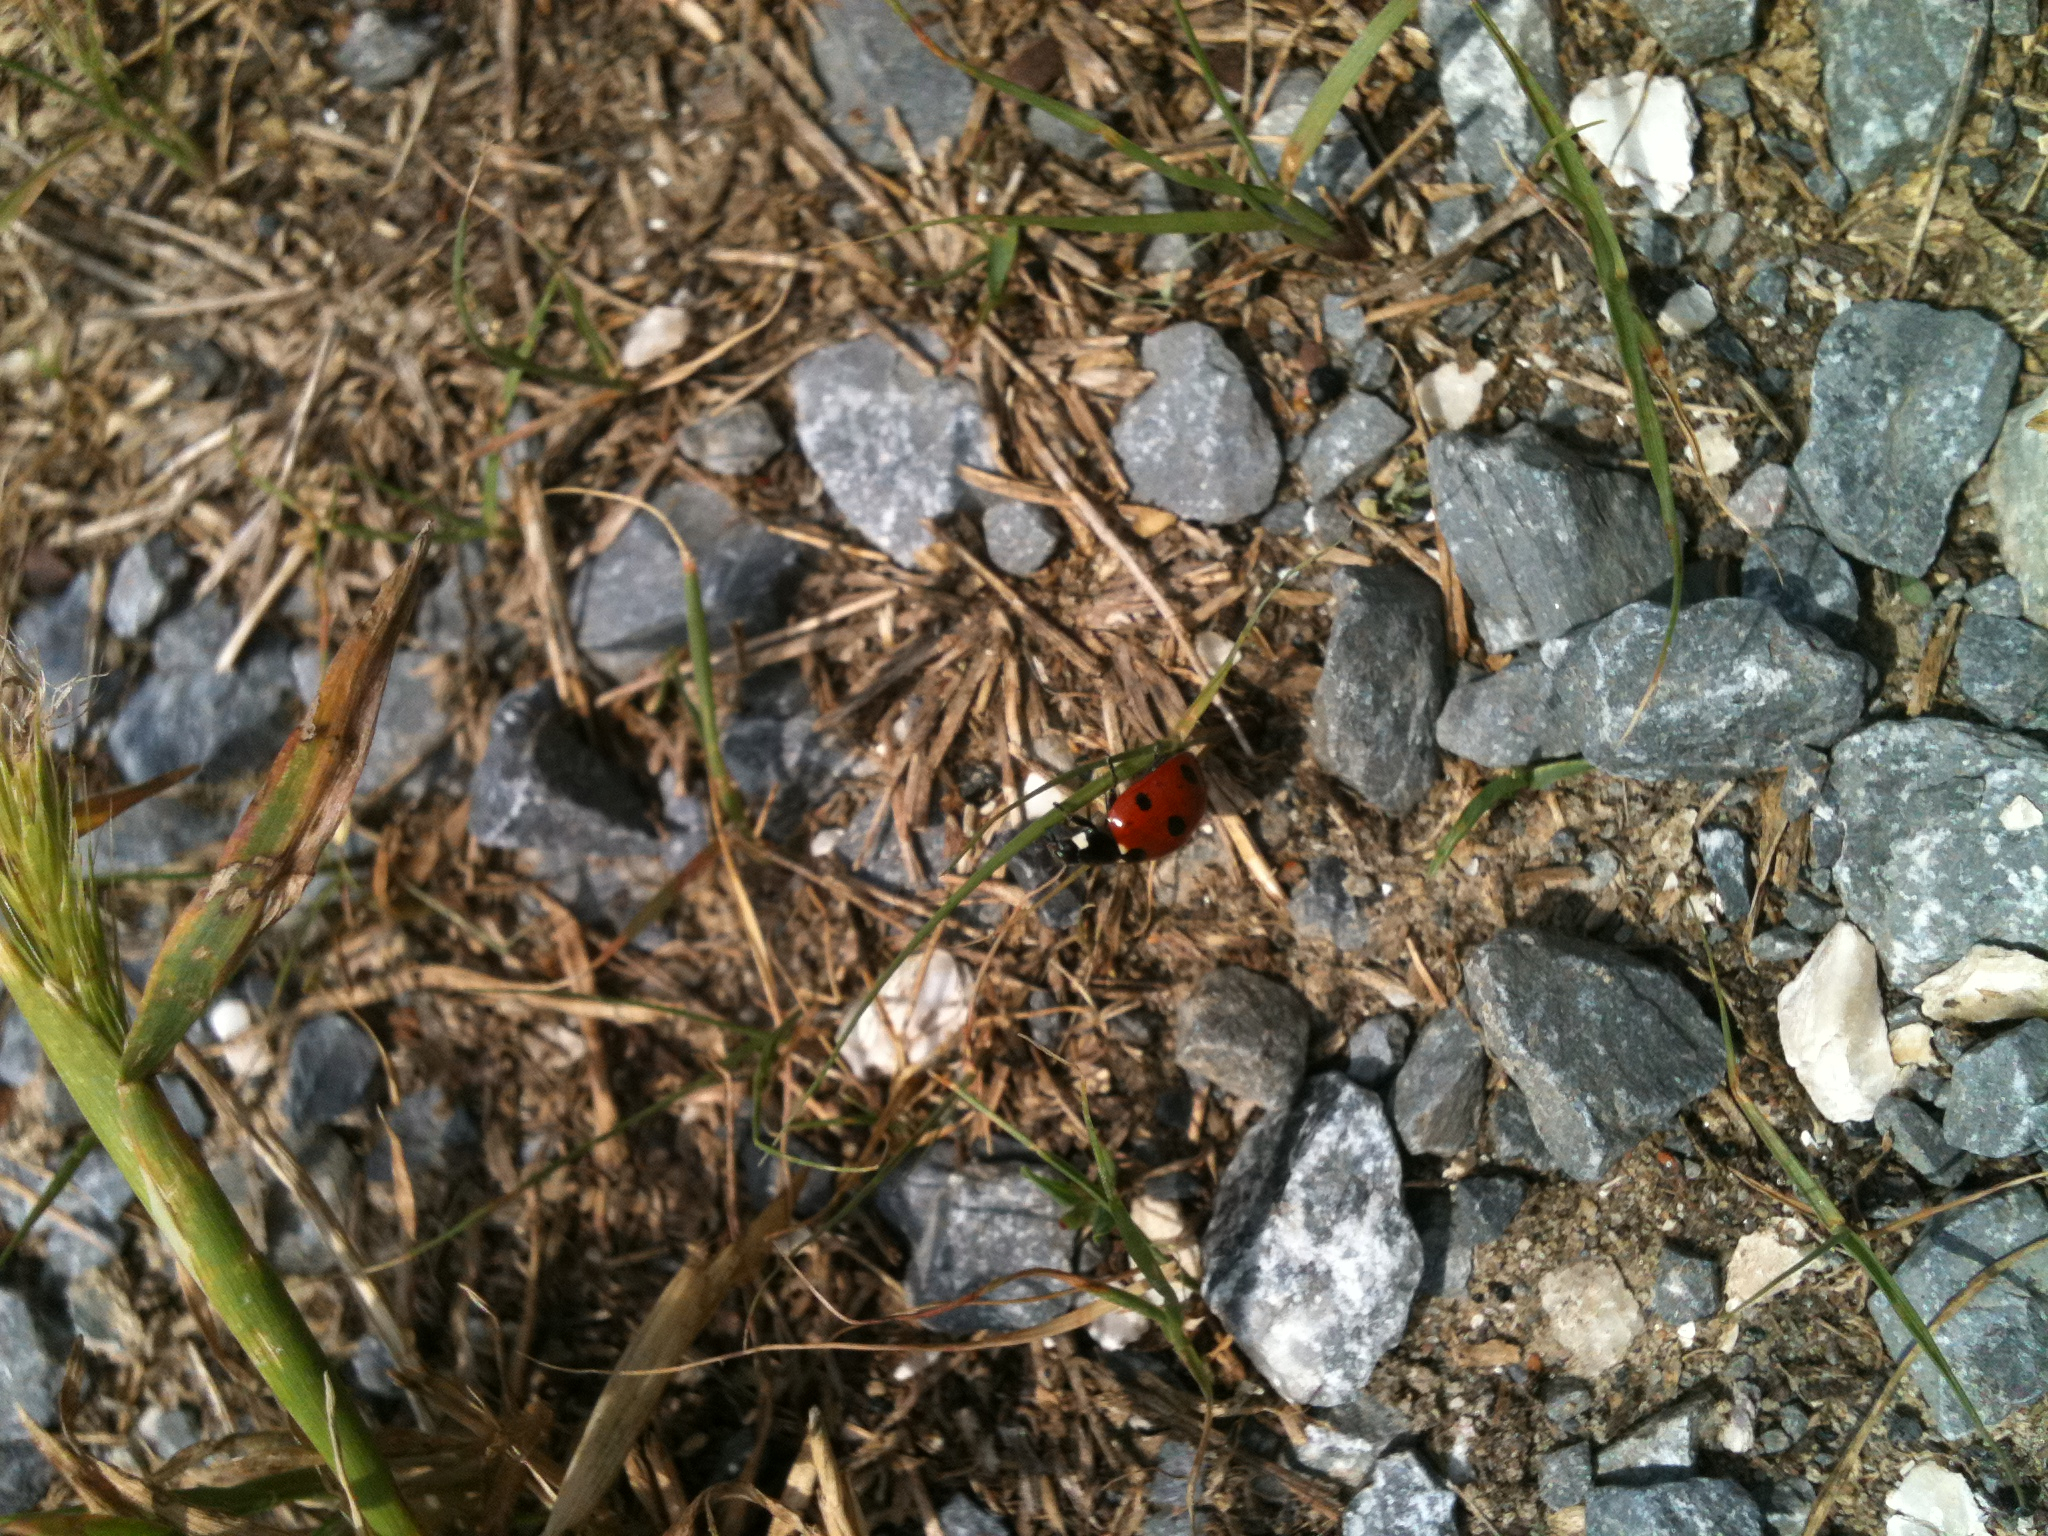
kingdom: Animalia
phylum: Arthropoda
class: Insecta
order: Coleoptera
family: Coccinellidae
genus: Coccinella
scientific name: Coccinella septempunctata
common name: Sevenspotted lady beetle
